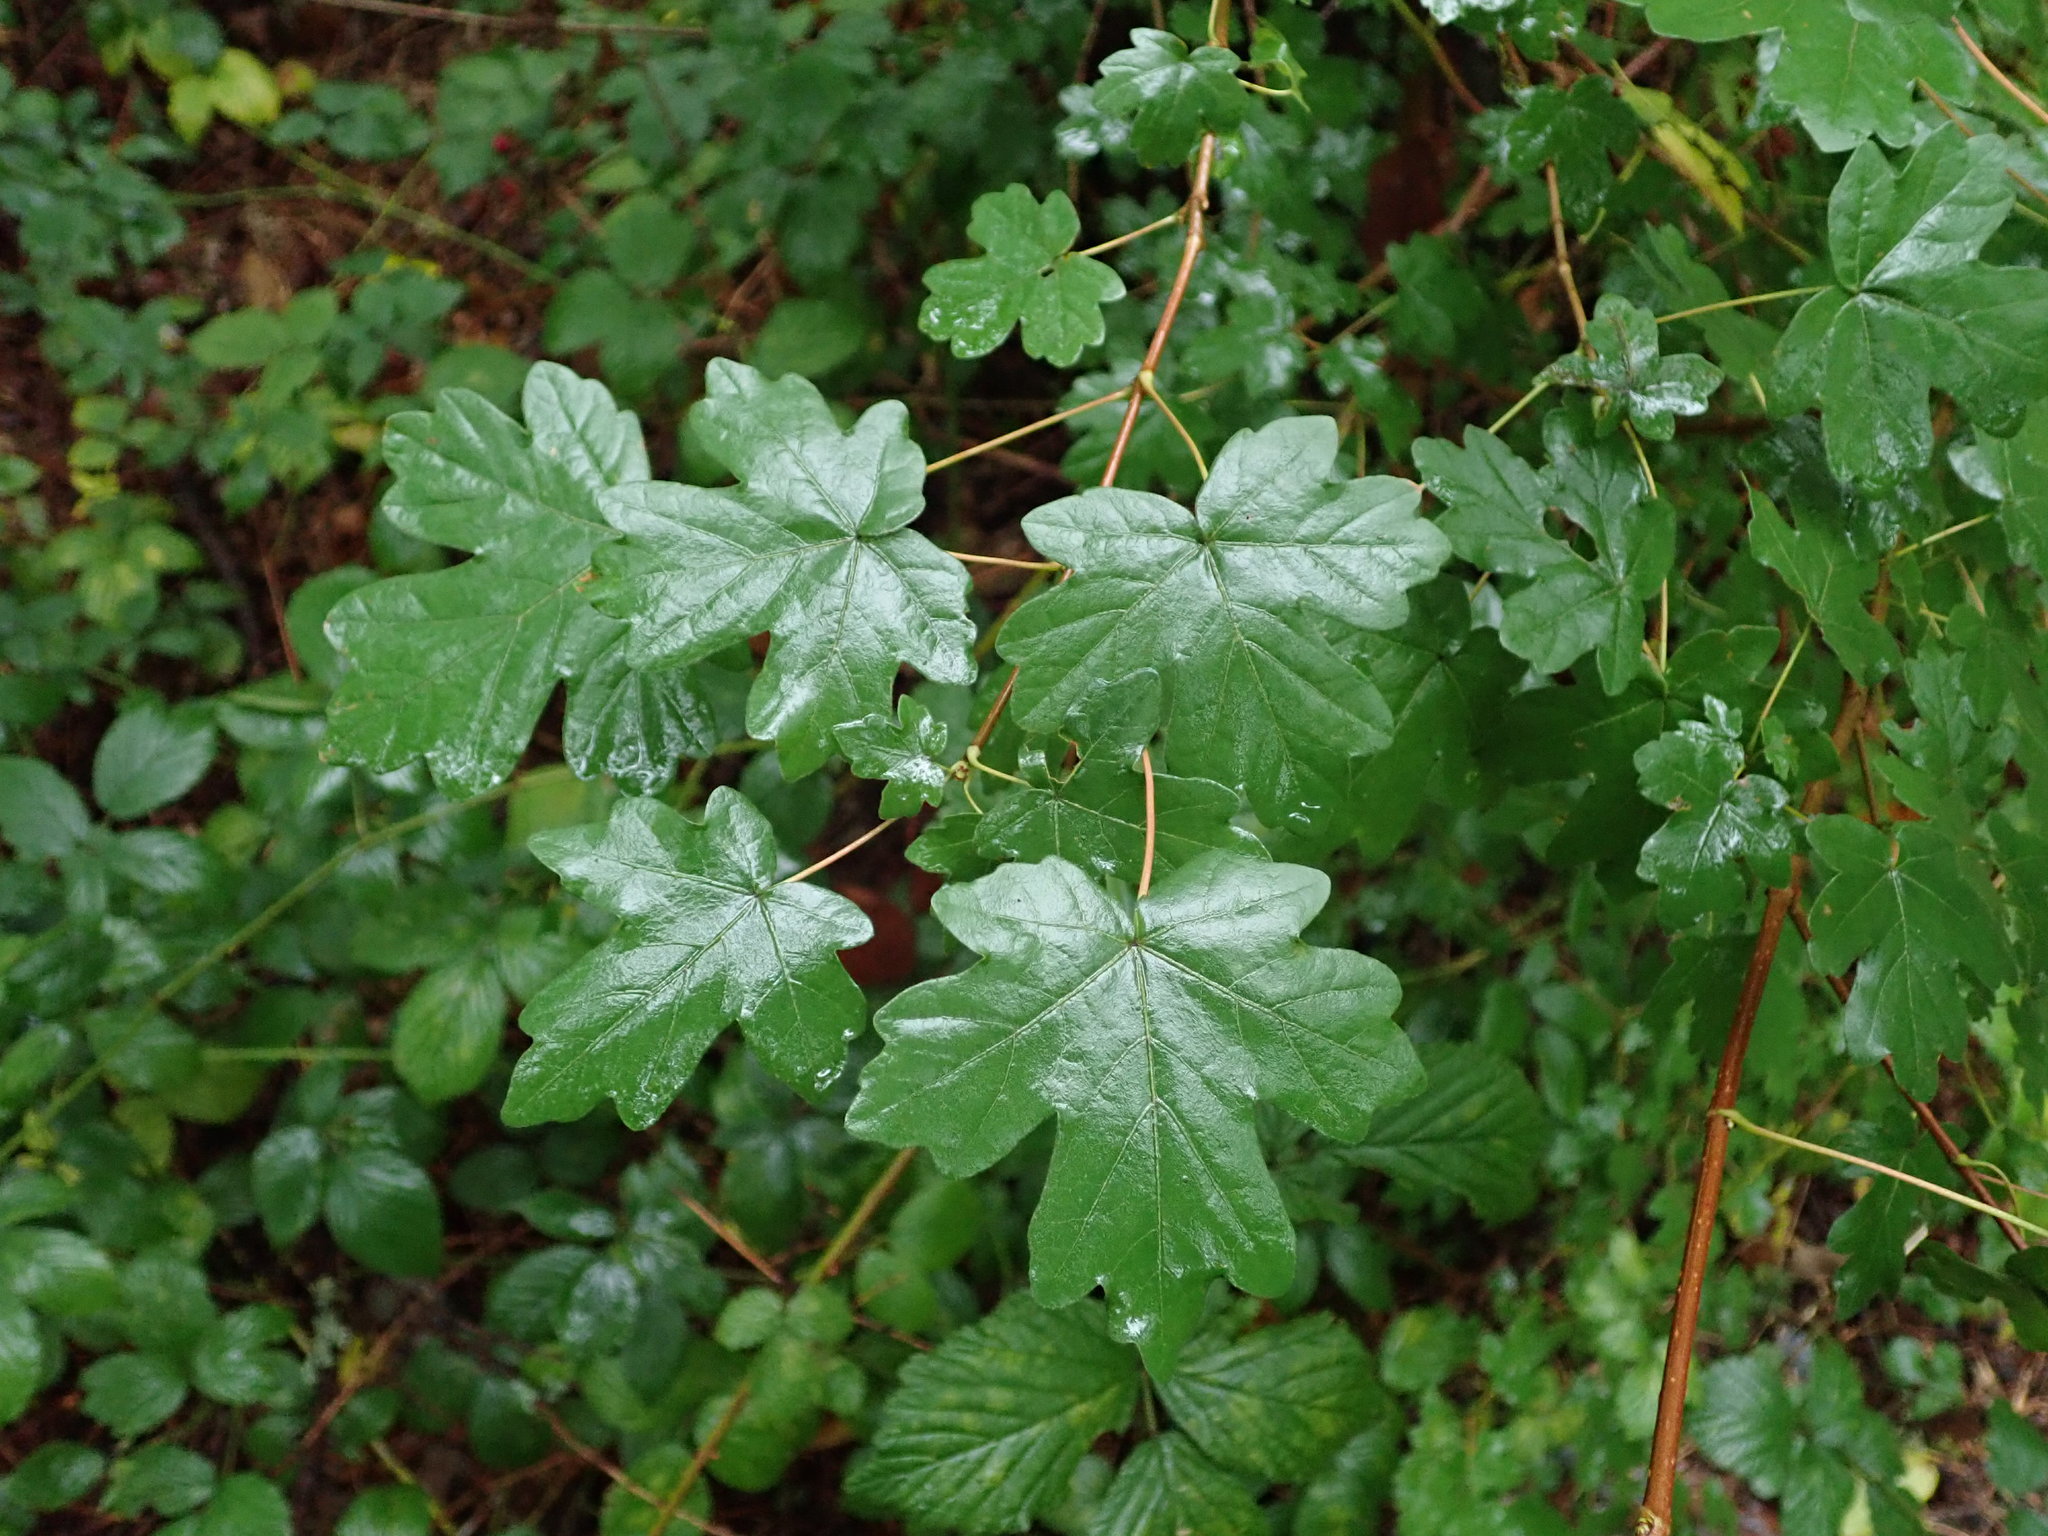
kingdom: Plantae
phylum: Tracheophyta
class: Magnoliopsida
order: Sapindales
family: Sapindaceae
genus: Acer
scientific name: Acer campestre
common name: Field maple
